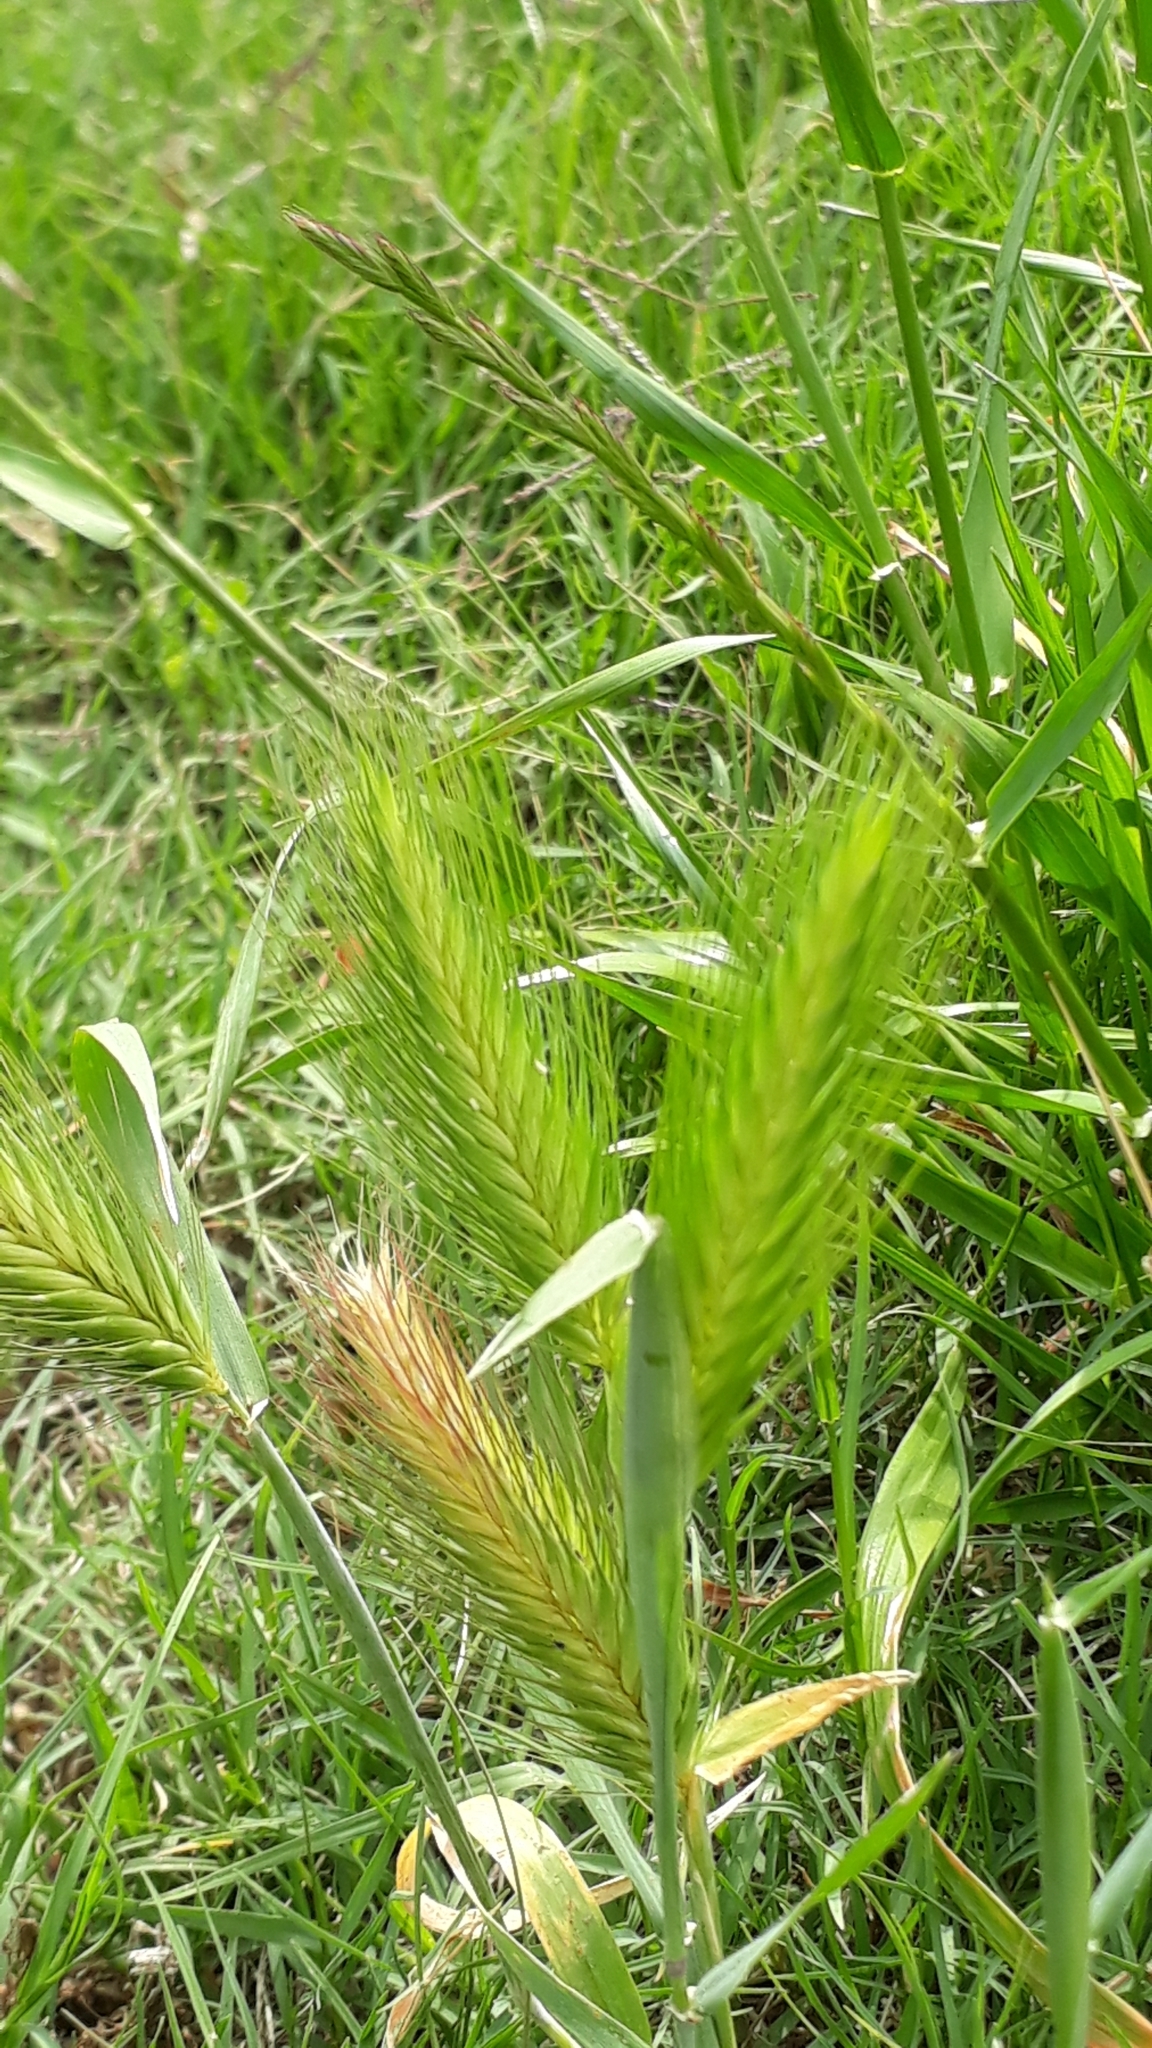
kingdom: Plantae
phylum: Tracheophyta
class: Liliopsida
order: Poales
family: Poaceae
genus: Hordeum
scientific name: Hordeum murinum
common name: Wall barley
